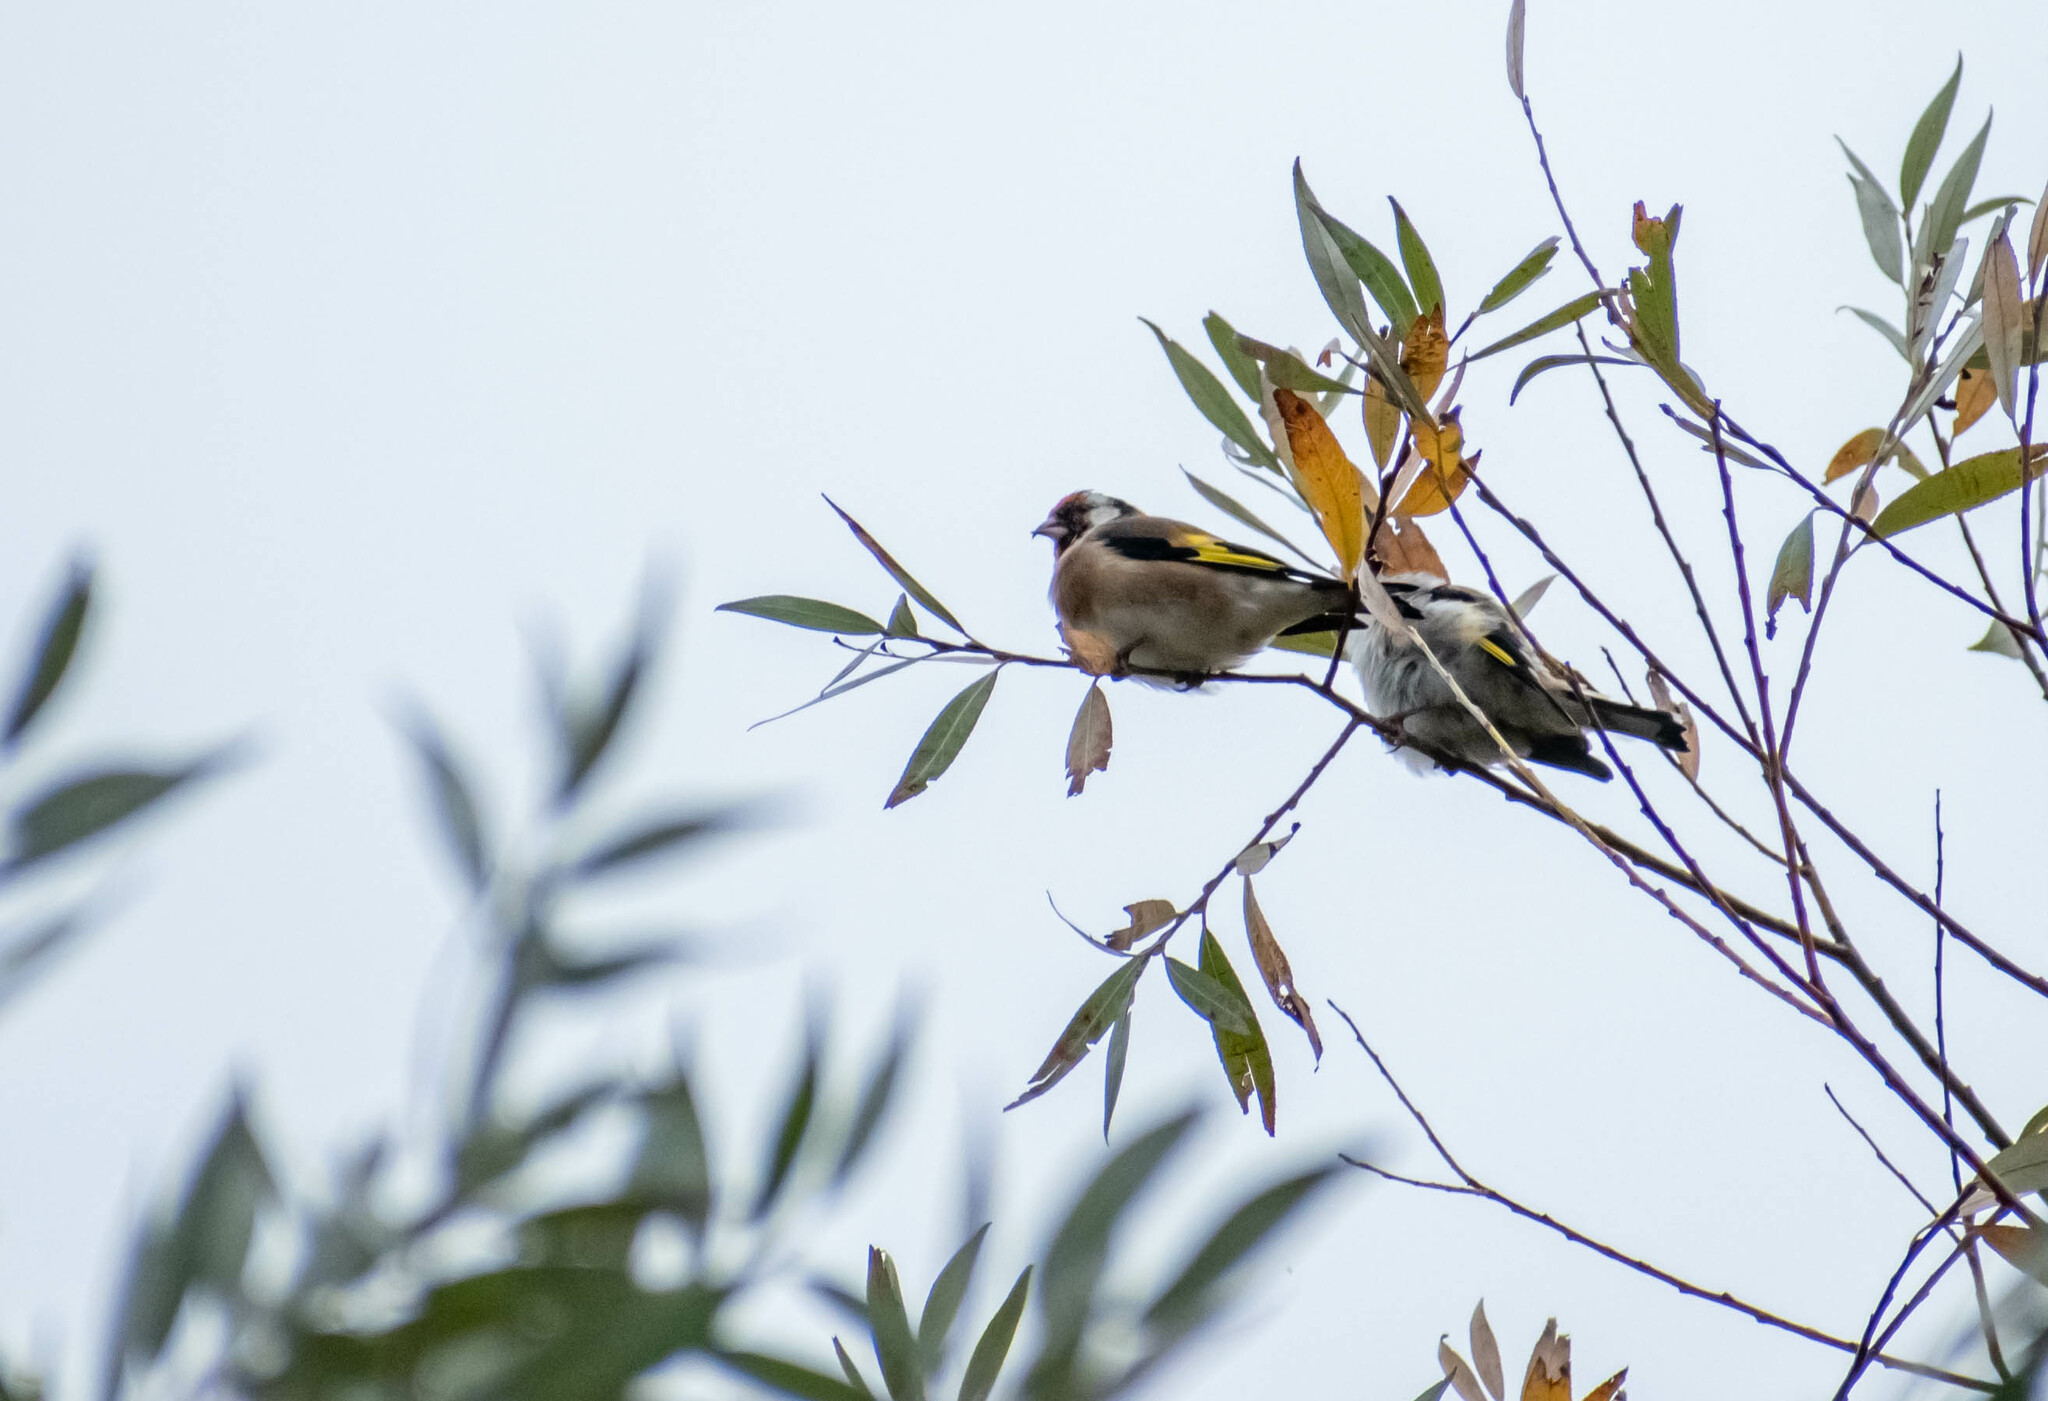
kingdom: Animalia
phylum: Chordata
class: Aves
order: Passeriformes
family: Fringillidae
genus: Carduelis
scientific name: Carduelis carduelis
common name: European goldfinch
